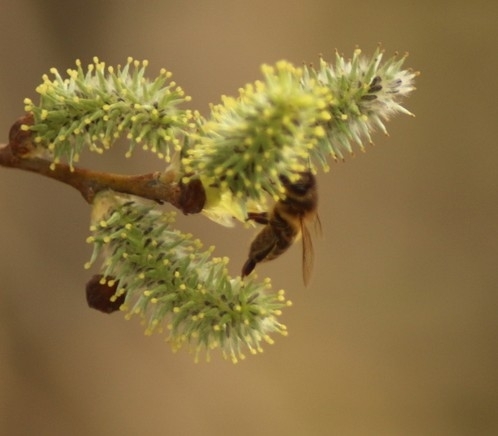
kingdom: Animalia
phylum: Arthropoda
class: Insecta
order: Hymenoptera
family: Apidae
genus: Apis
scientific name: Apis mellifera
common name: Honey bee
